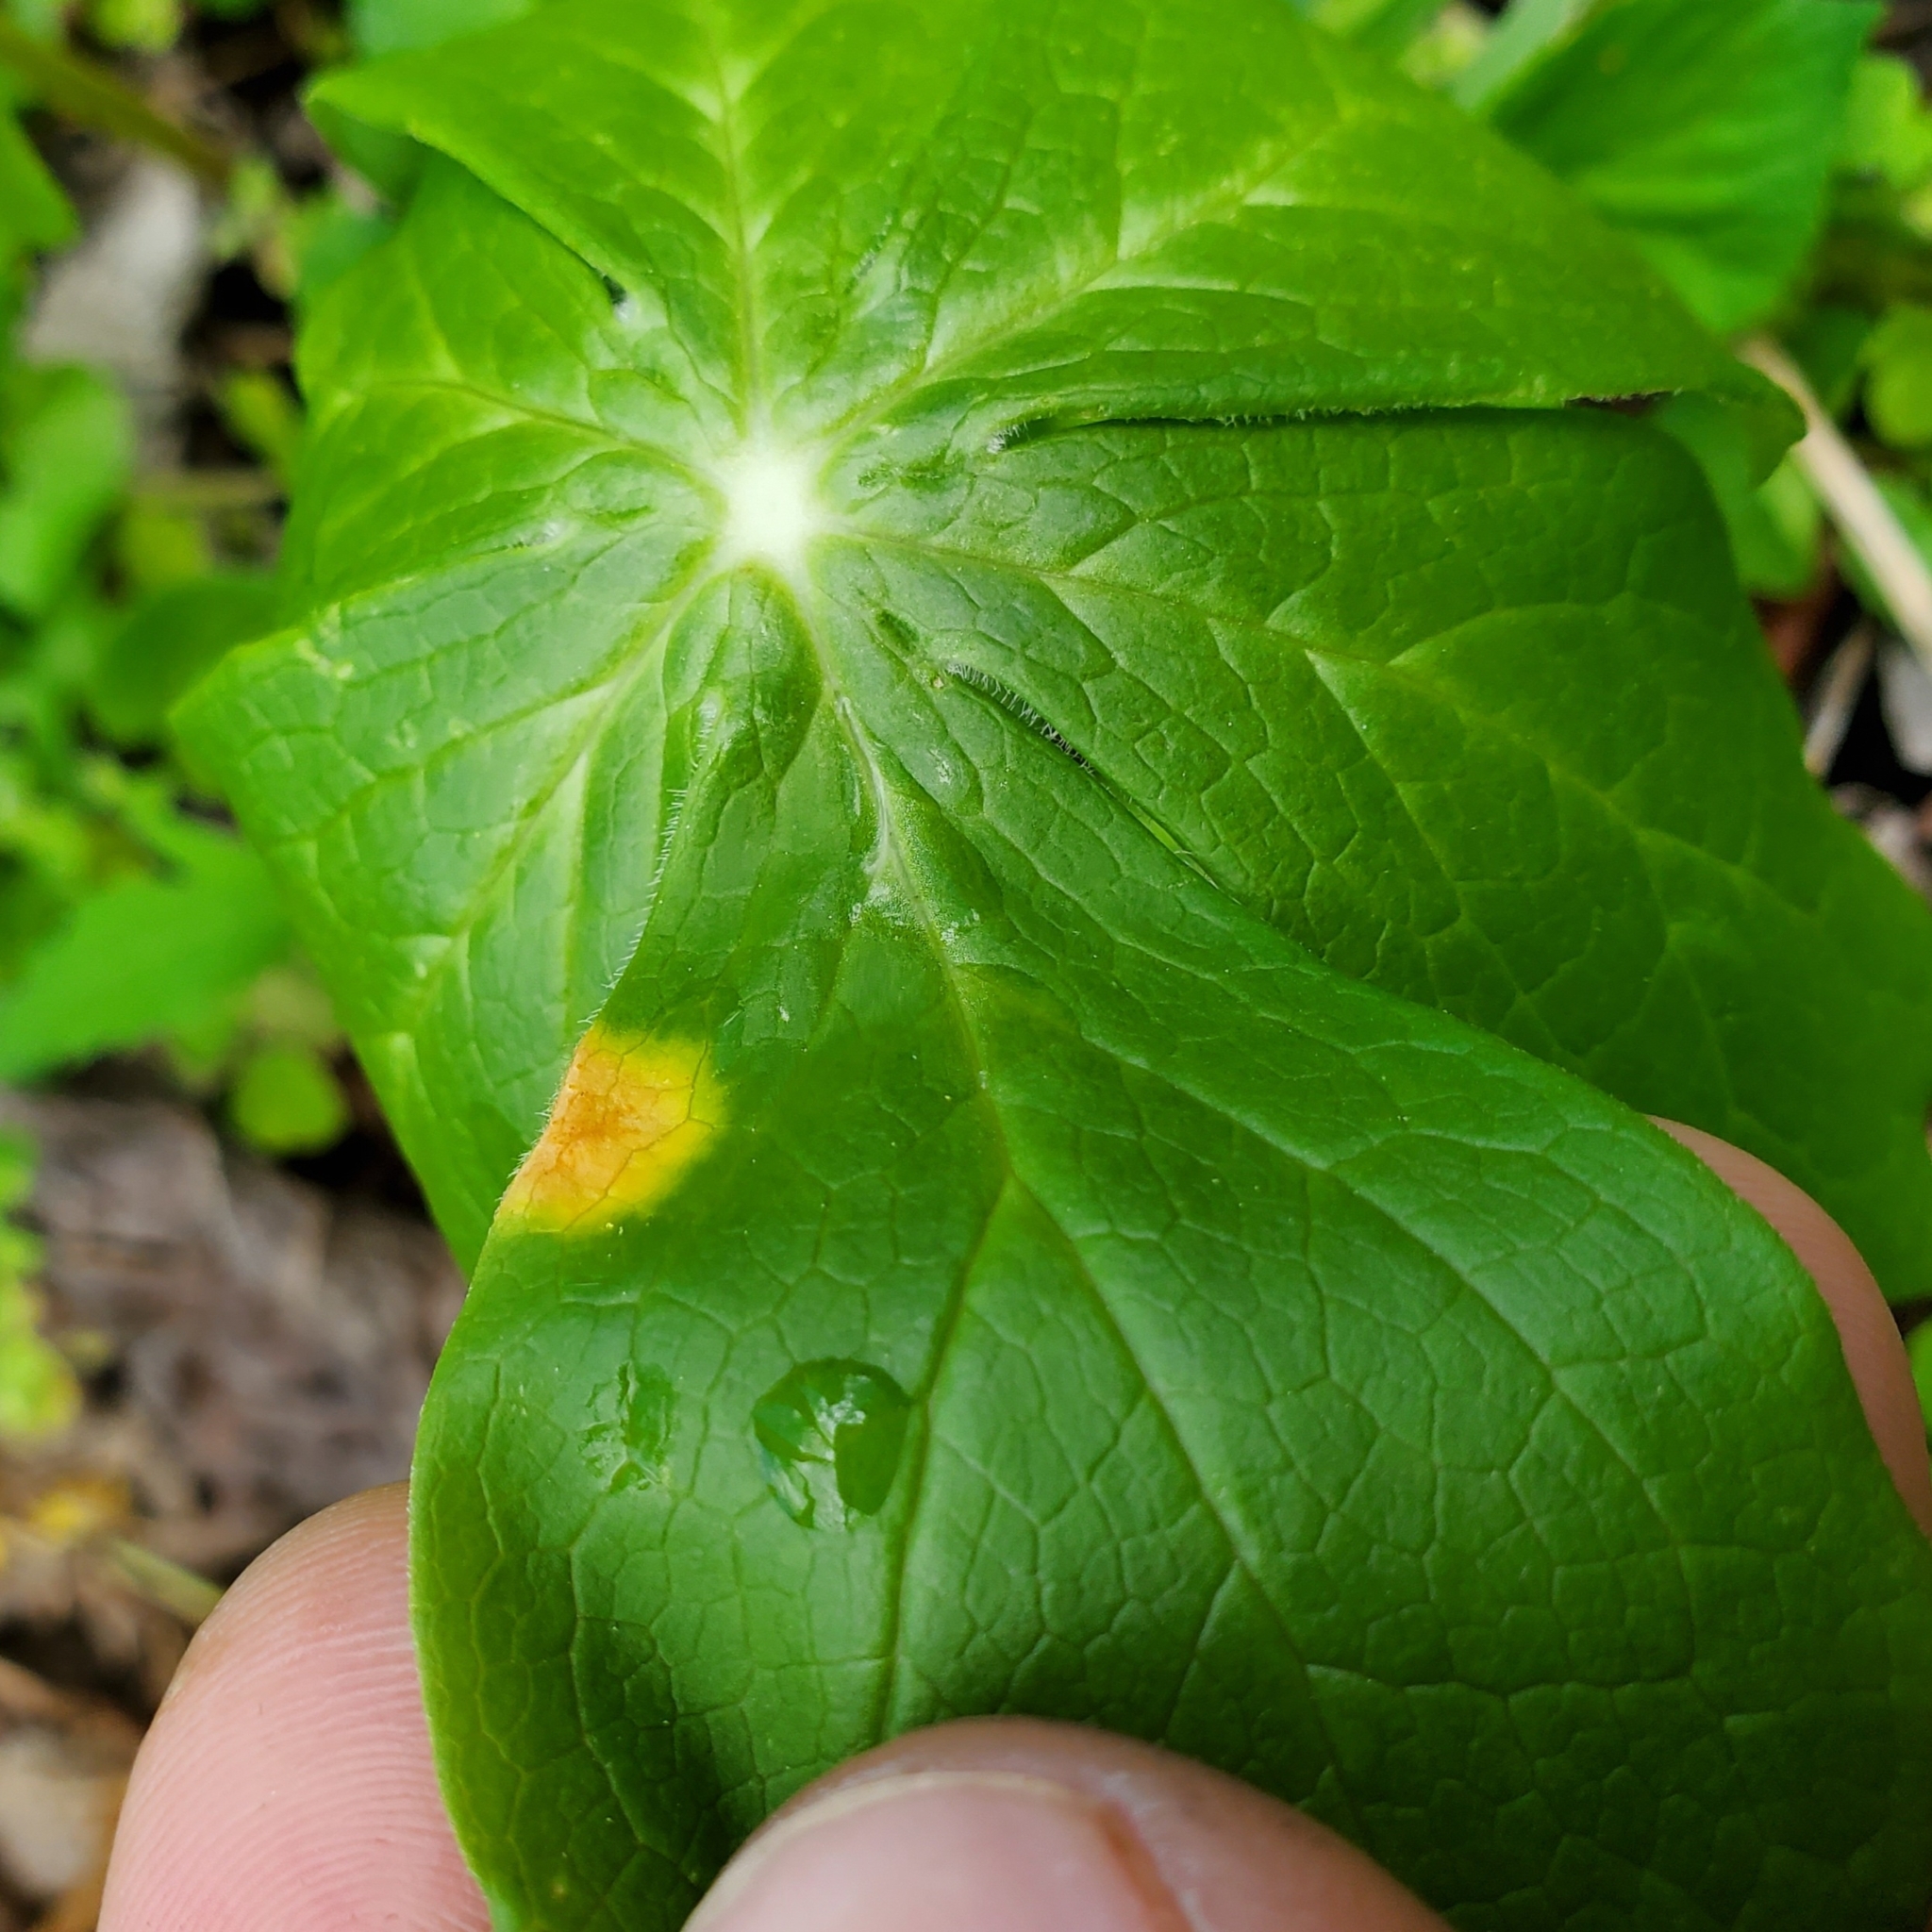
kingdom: Fungi
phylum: Basidiomycota
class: Pucciniomycetes
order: Pucciniales
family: Pucciniaceae
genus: Puccinia
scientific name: Puccinia podophylli
